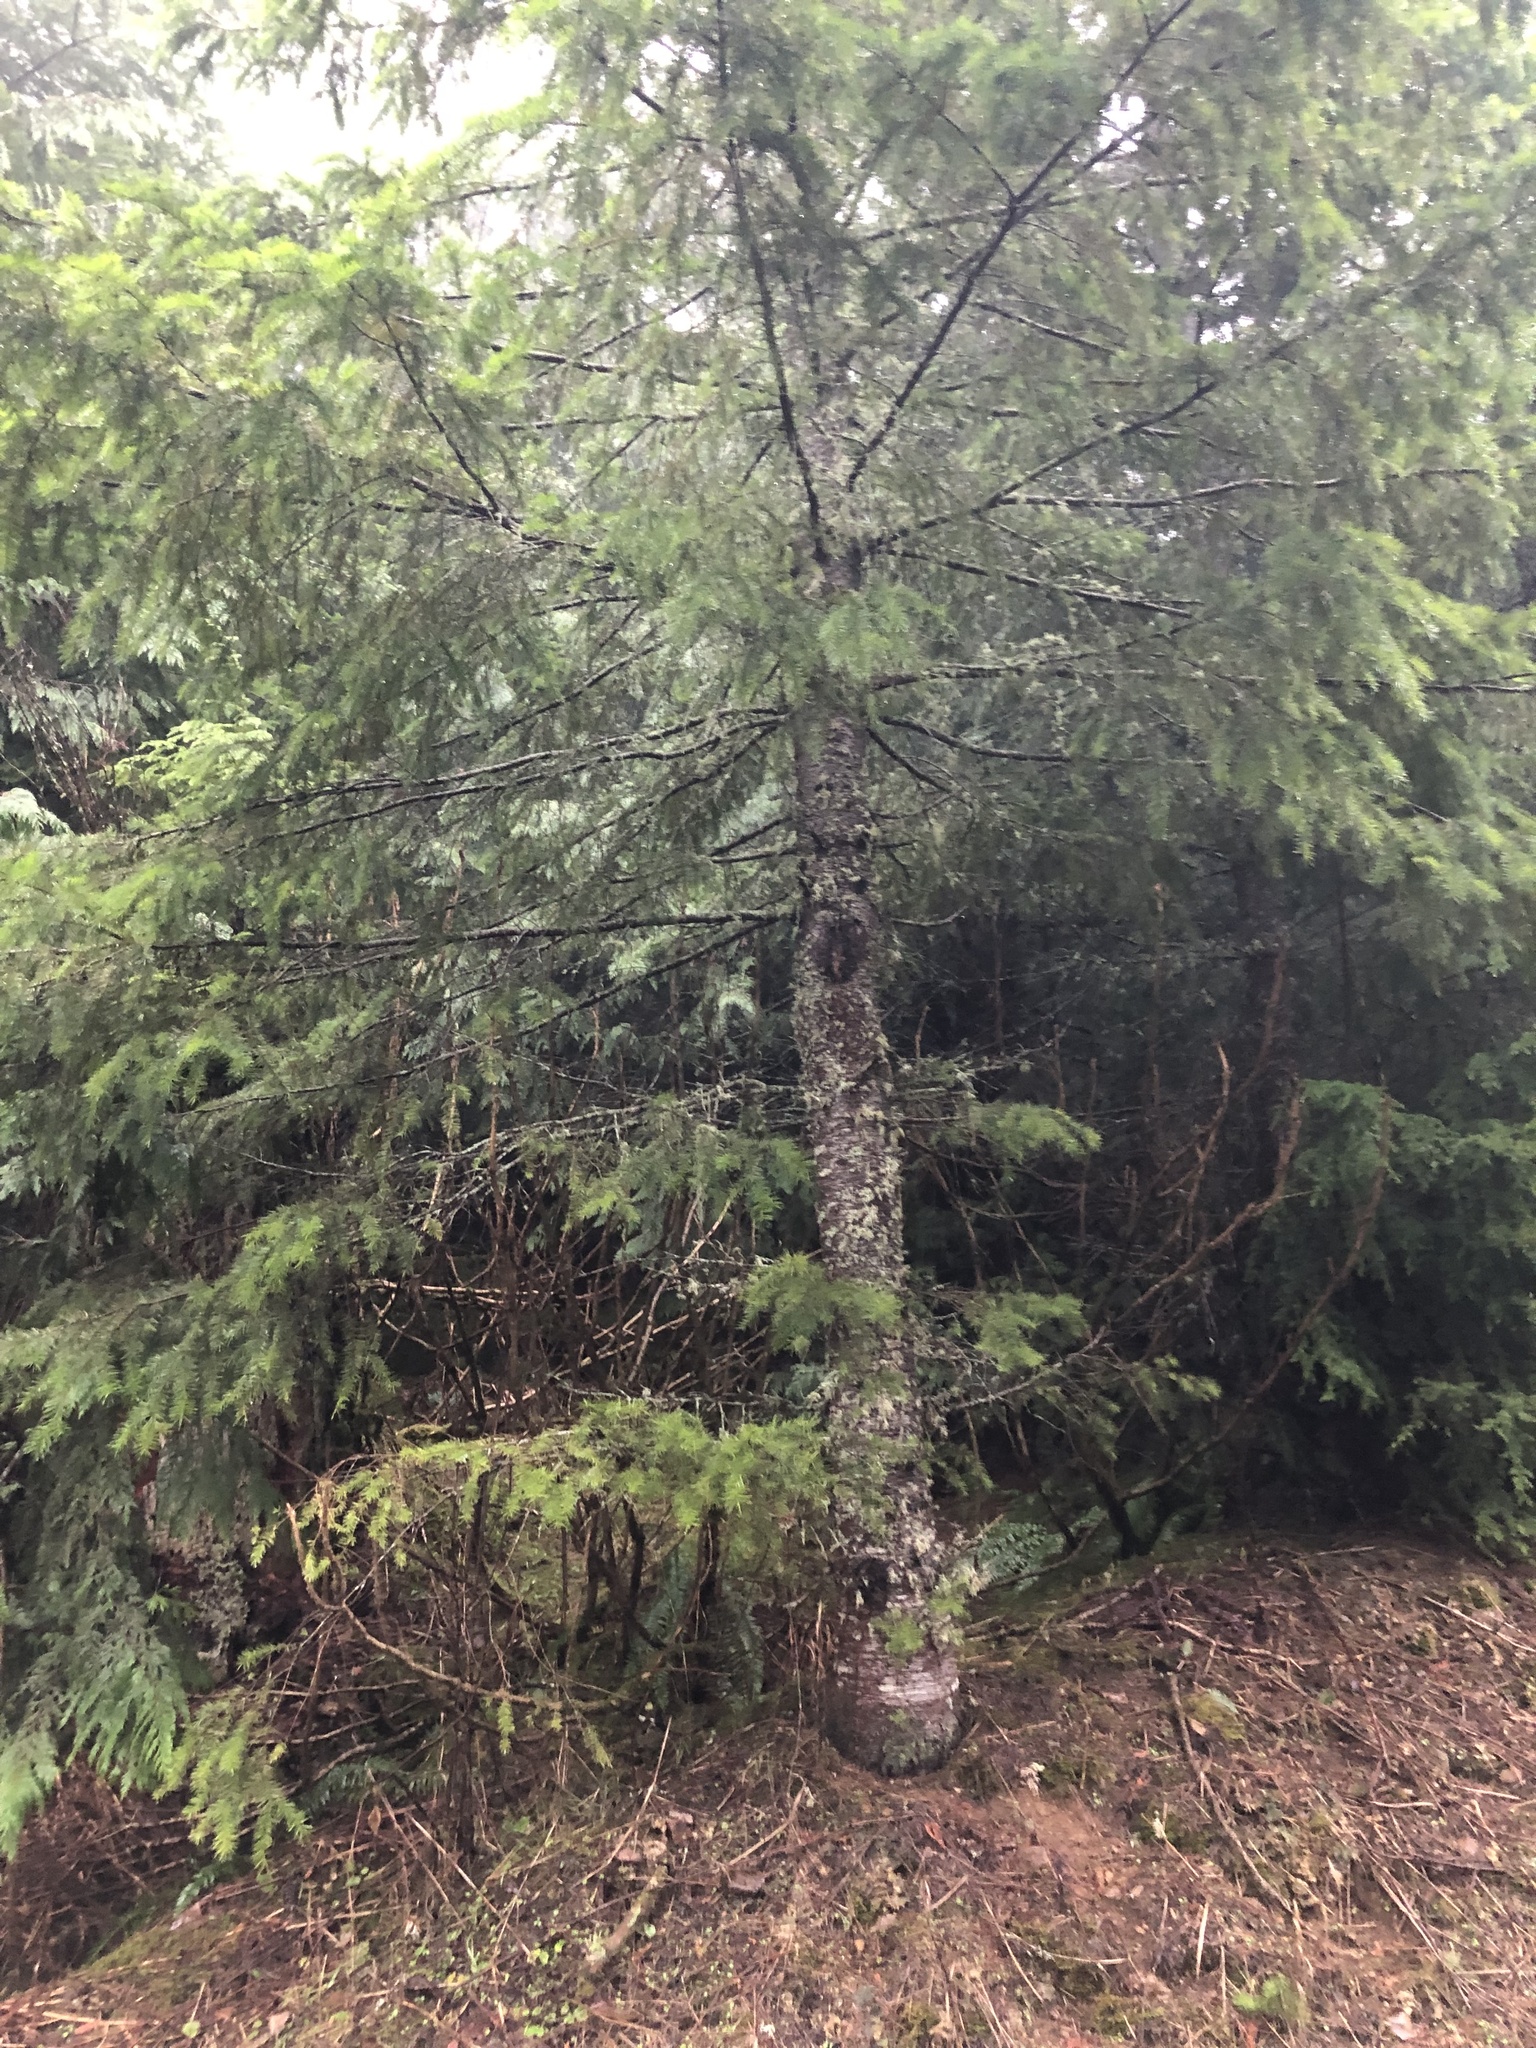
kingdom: Plantae
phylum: Tracheophyta
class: Pinopsida
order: Pinales
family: Pinaceae
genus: Pseudotsuga
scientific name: Pseudotsuga menziesii
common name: Douglas fir
